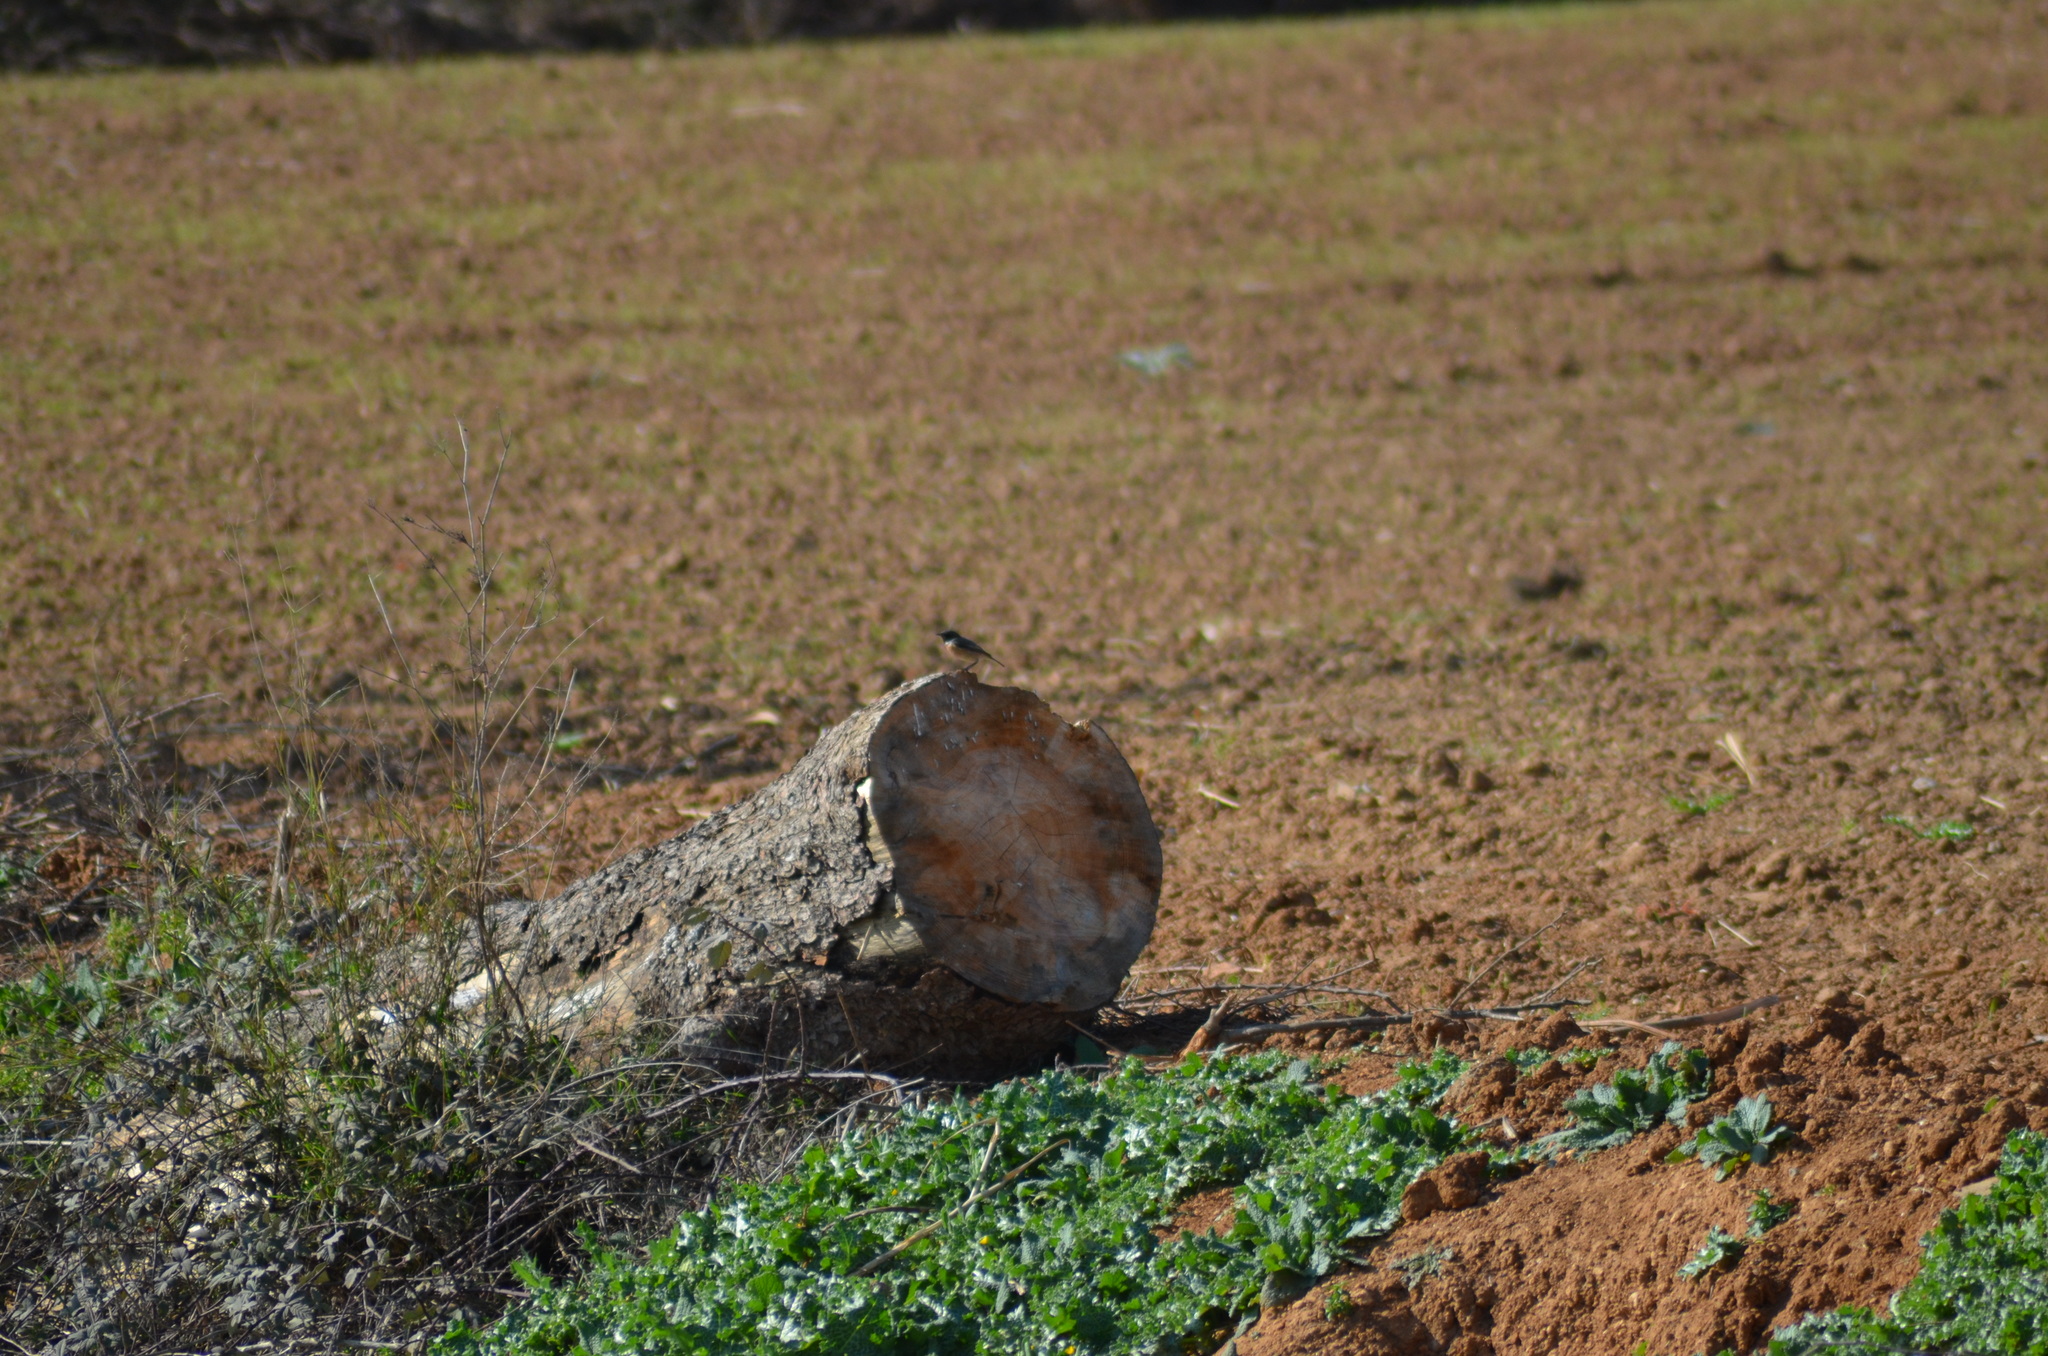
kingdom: Animalia
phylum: Chordata
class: Aves
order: Passeriformes
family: Muscicapidae
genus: Saxicola
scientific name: Saxicola rubicola
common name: European stonechat
